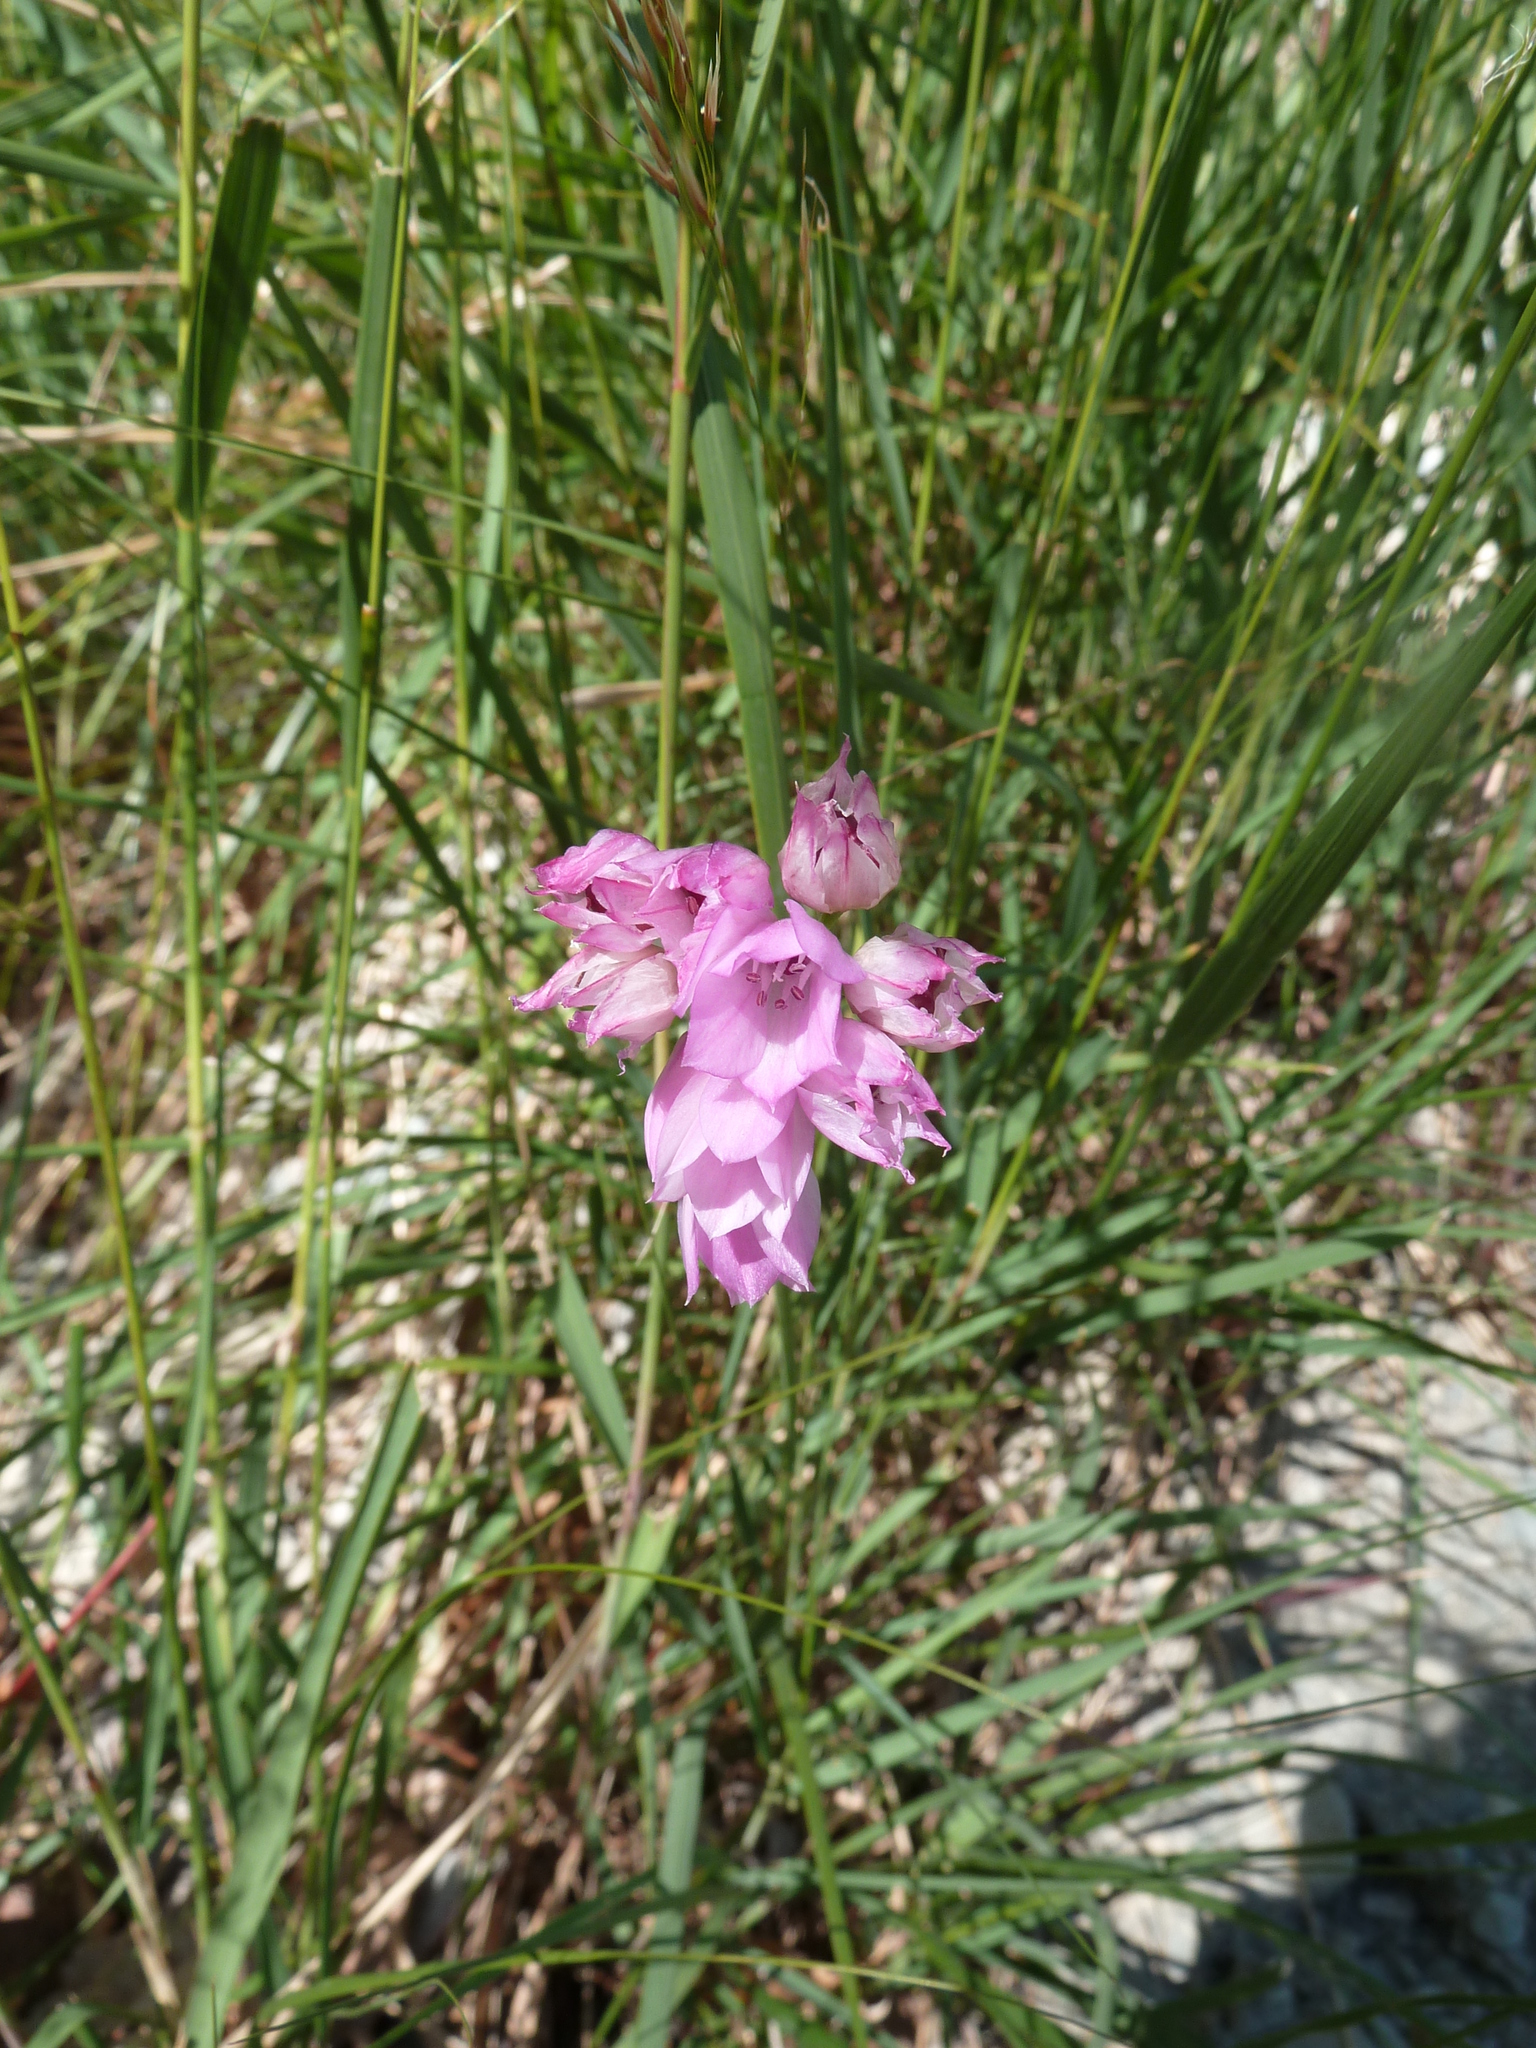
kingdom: Plantae
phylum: Tracheophyta
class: Liliopsida
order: Asparagales
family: Amaryllidaceae
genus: Allium
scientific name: Allium narcissiflorum
